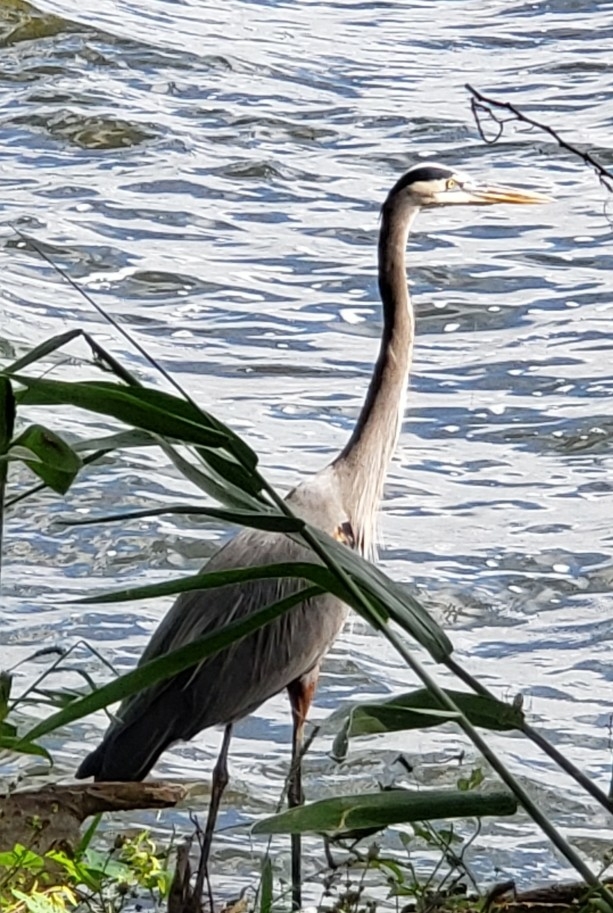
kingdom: Animalia
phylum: Chordata
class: Aves
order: Pelecaniformes
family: Ardeidae
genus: Ardea
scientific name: Ardea herodias
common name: Great blue heron
